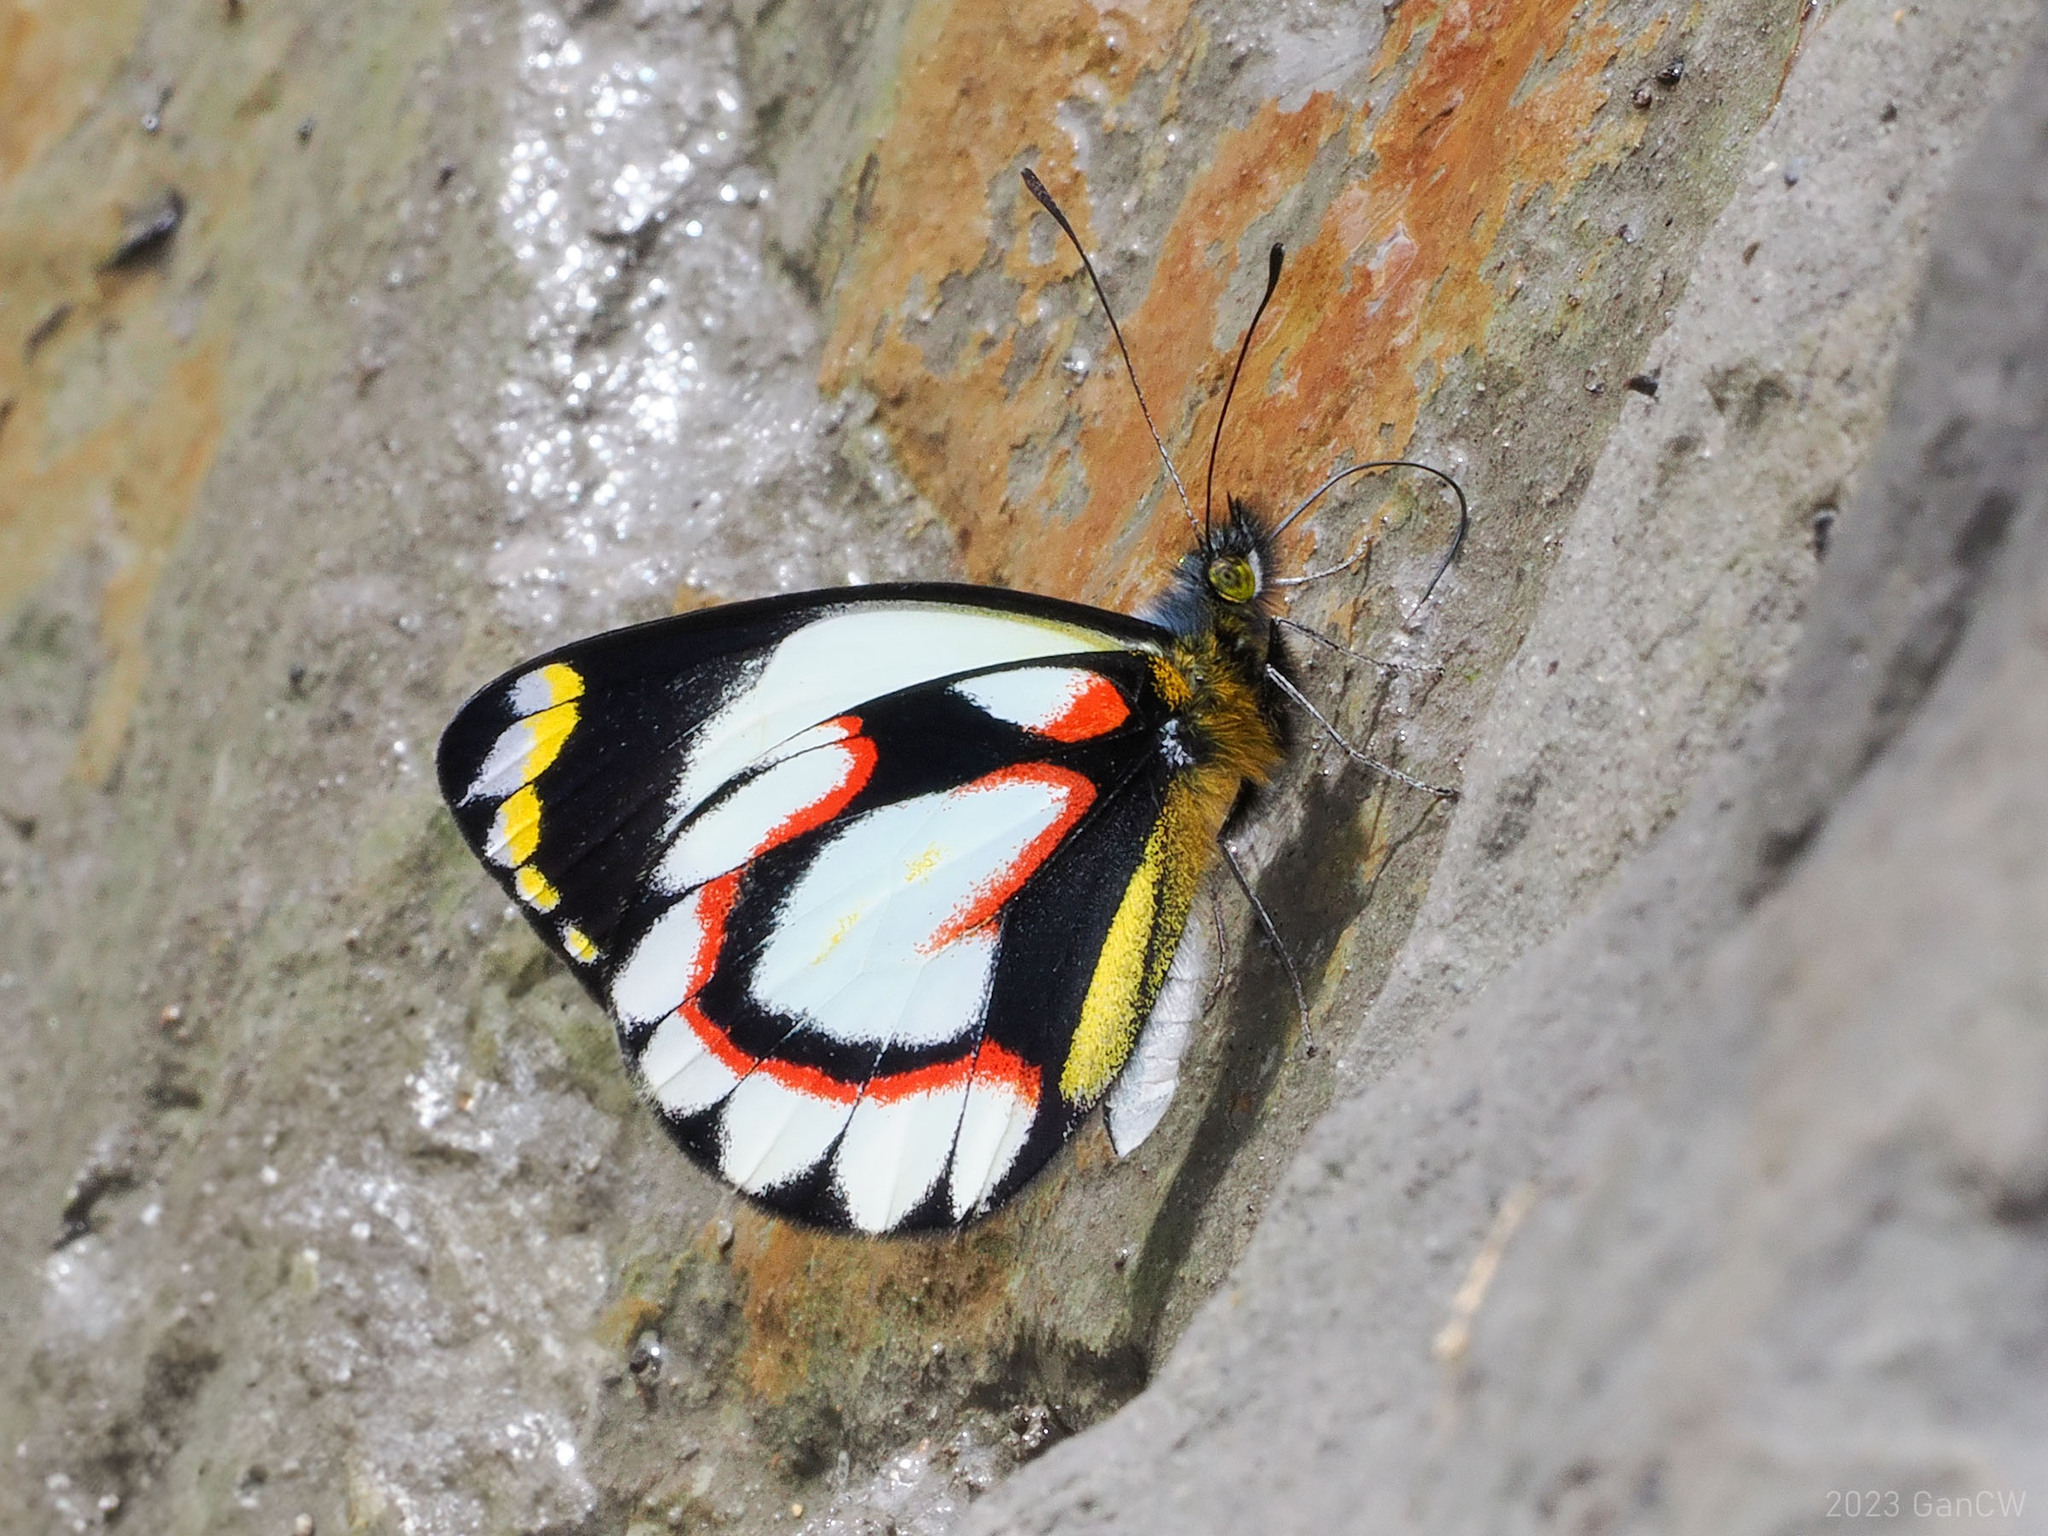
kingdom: Animalia
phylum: Arthropoda
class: Insecta
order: Lepidoptera
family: Pieridae
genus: Delias
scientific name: Delias flavistriga
